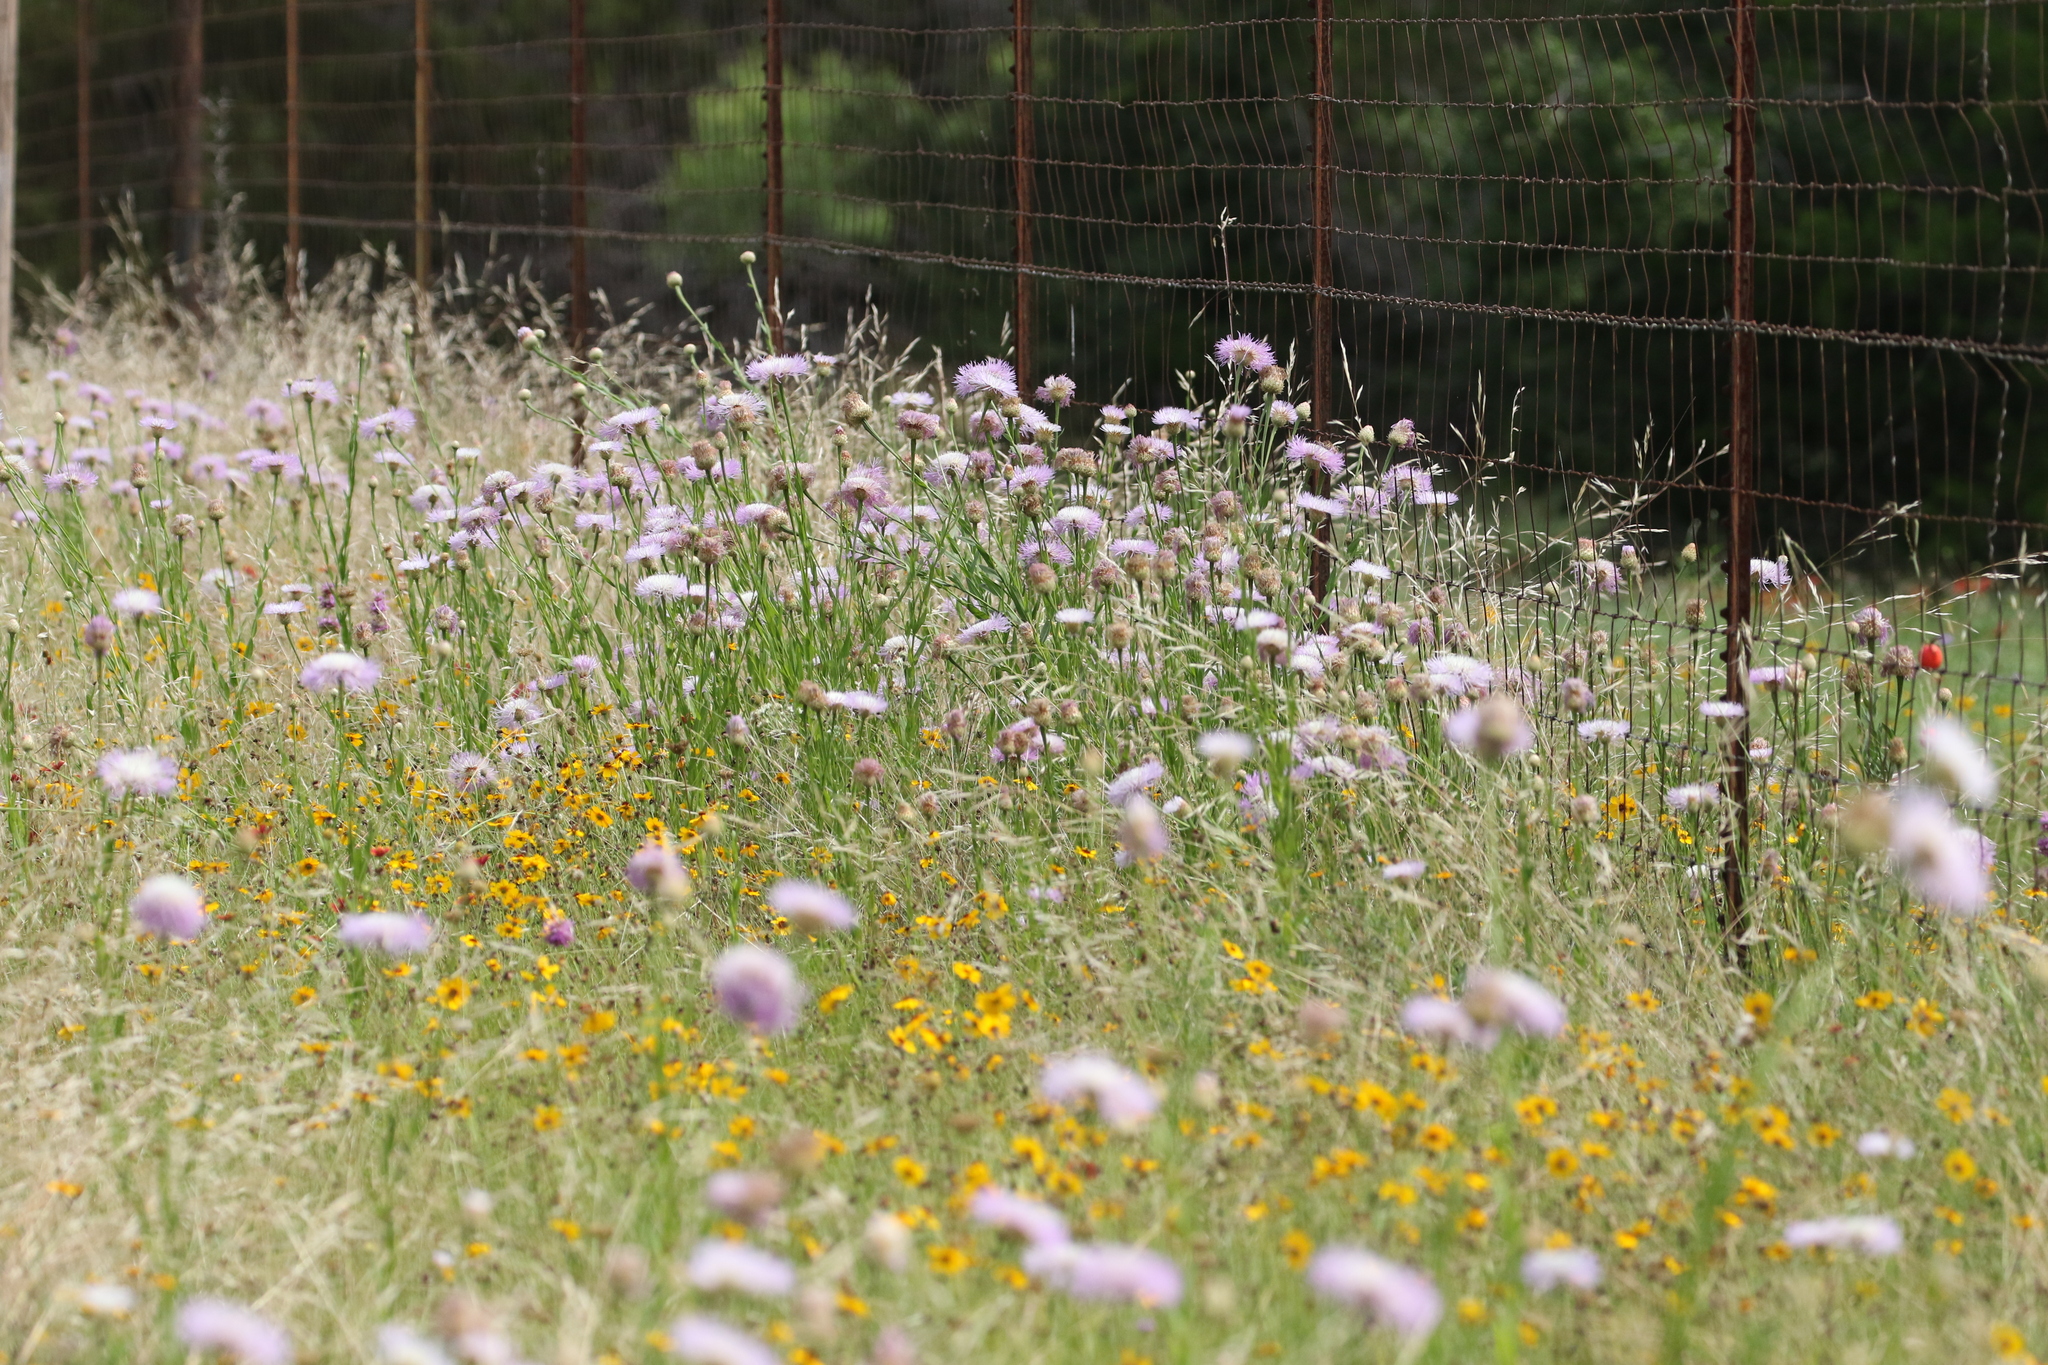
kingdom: Plantae
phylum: Tracheophyta
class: Magnoliopsida
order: Asterales
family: Asteraceae
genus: Plectocephalus
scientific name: Plectocephalus americanus
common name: American basket-flower
